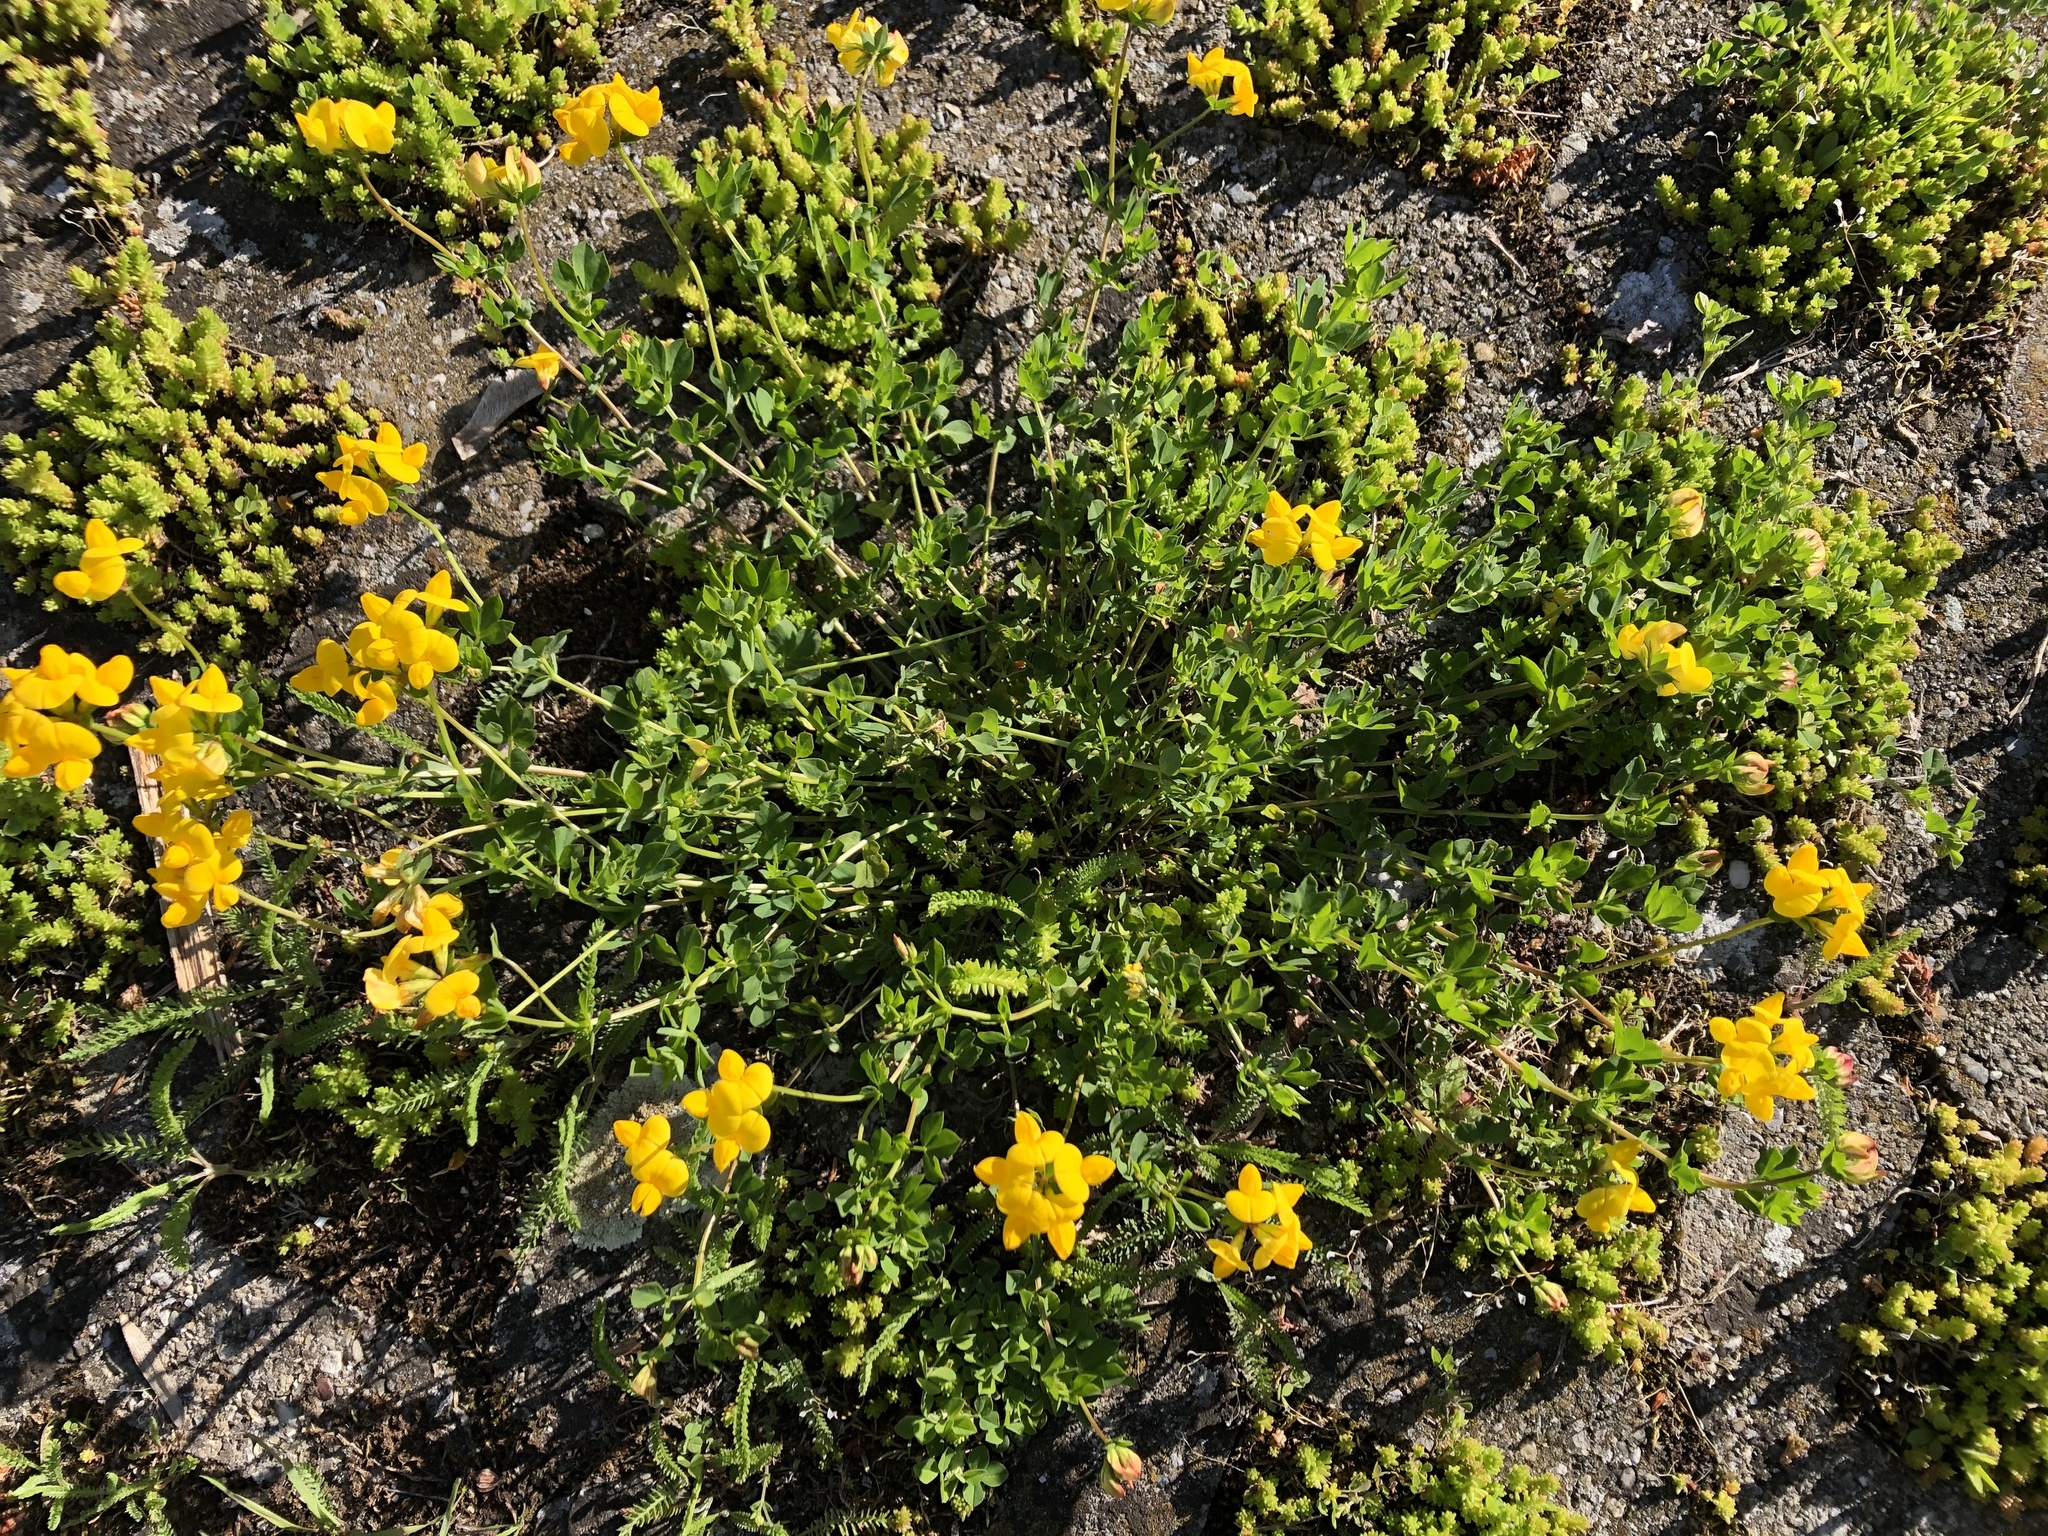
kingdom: Plantae
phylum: Tracheophyta
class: Magnoliopsida
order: Fabales
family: Fabaceae
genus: Lotus
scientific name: Lotus corniculatus
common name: Common bird's-foot-trefoil
